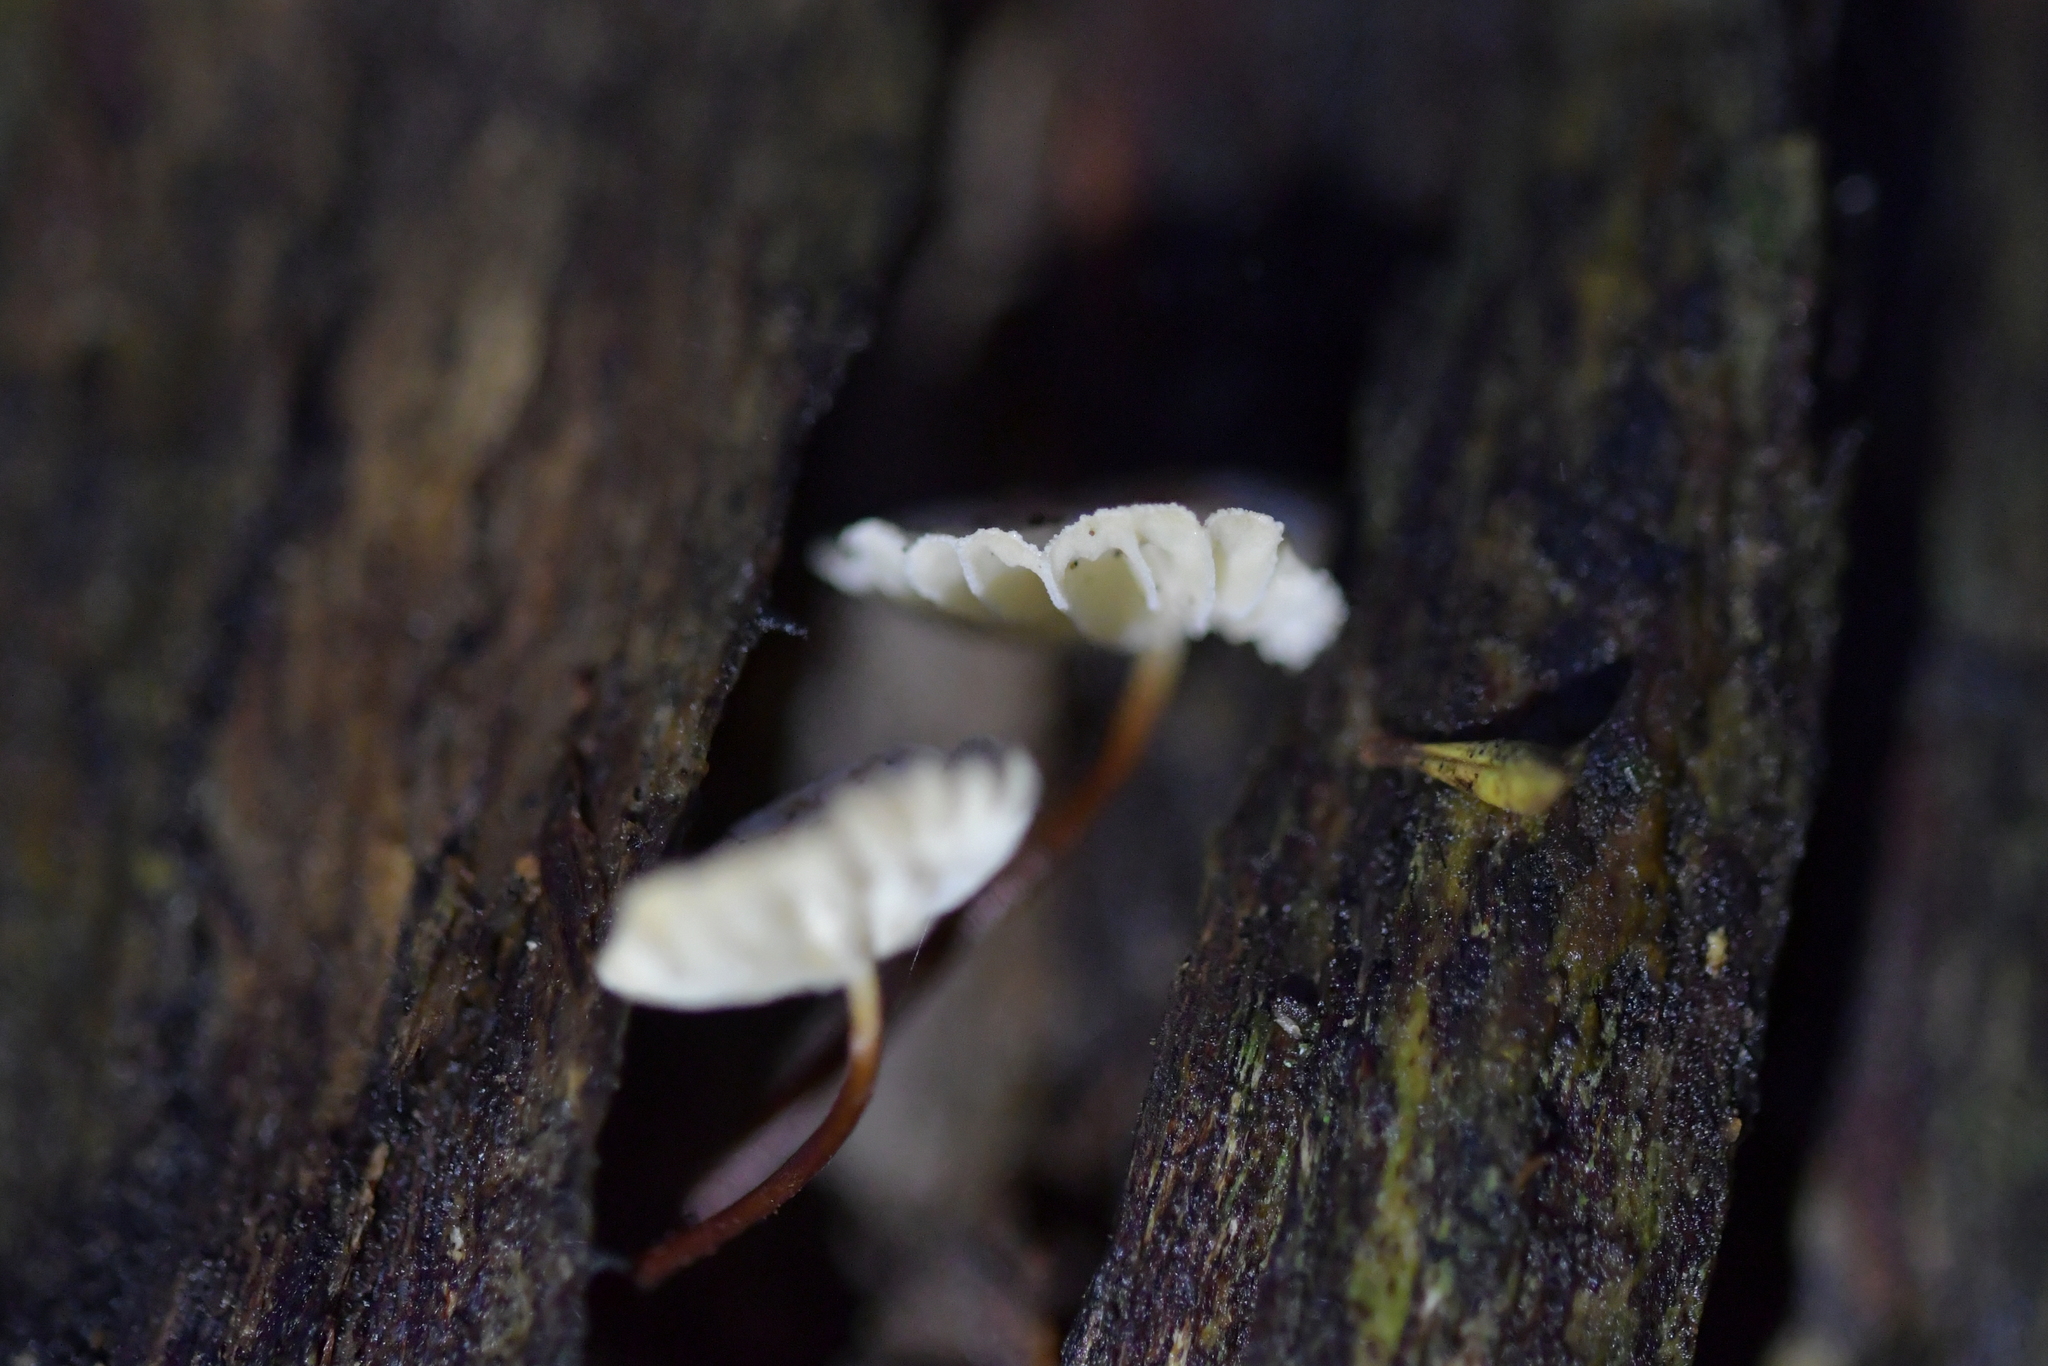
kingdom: Fungi
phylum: Basidiomycota
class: Agaricomycetes
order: Agaricales
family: Omphalotaceae
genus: Mycetinis
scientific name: Mycetinis curraniae
